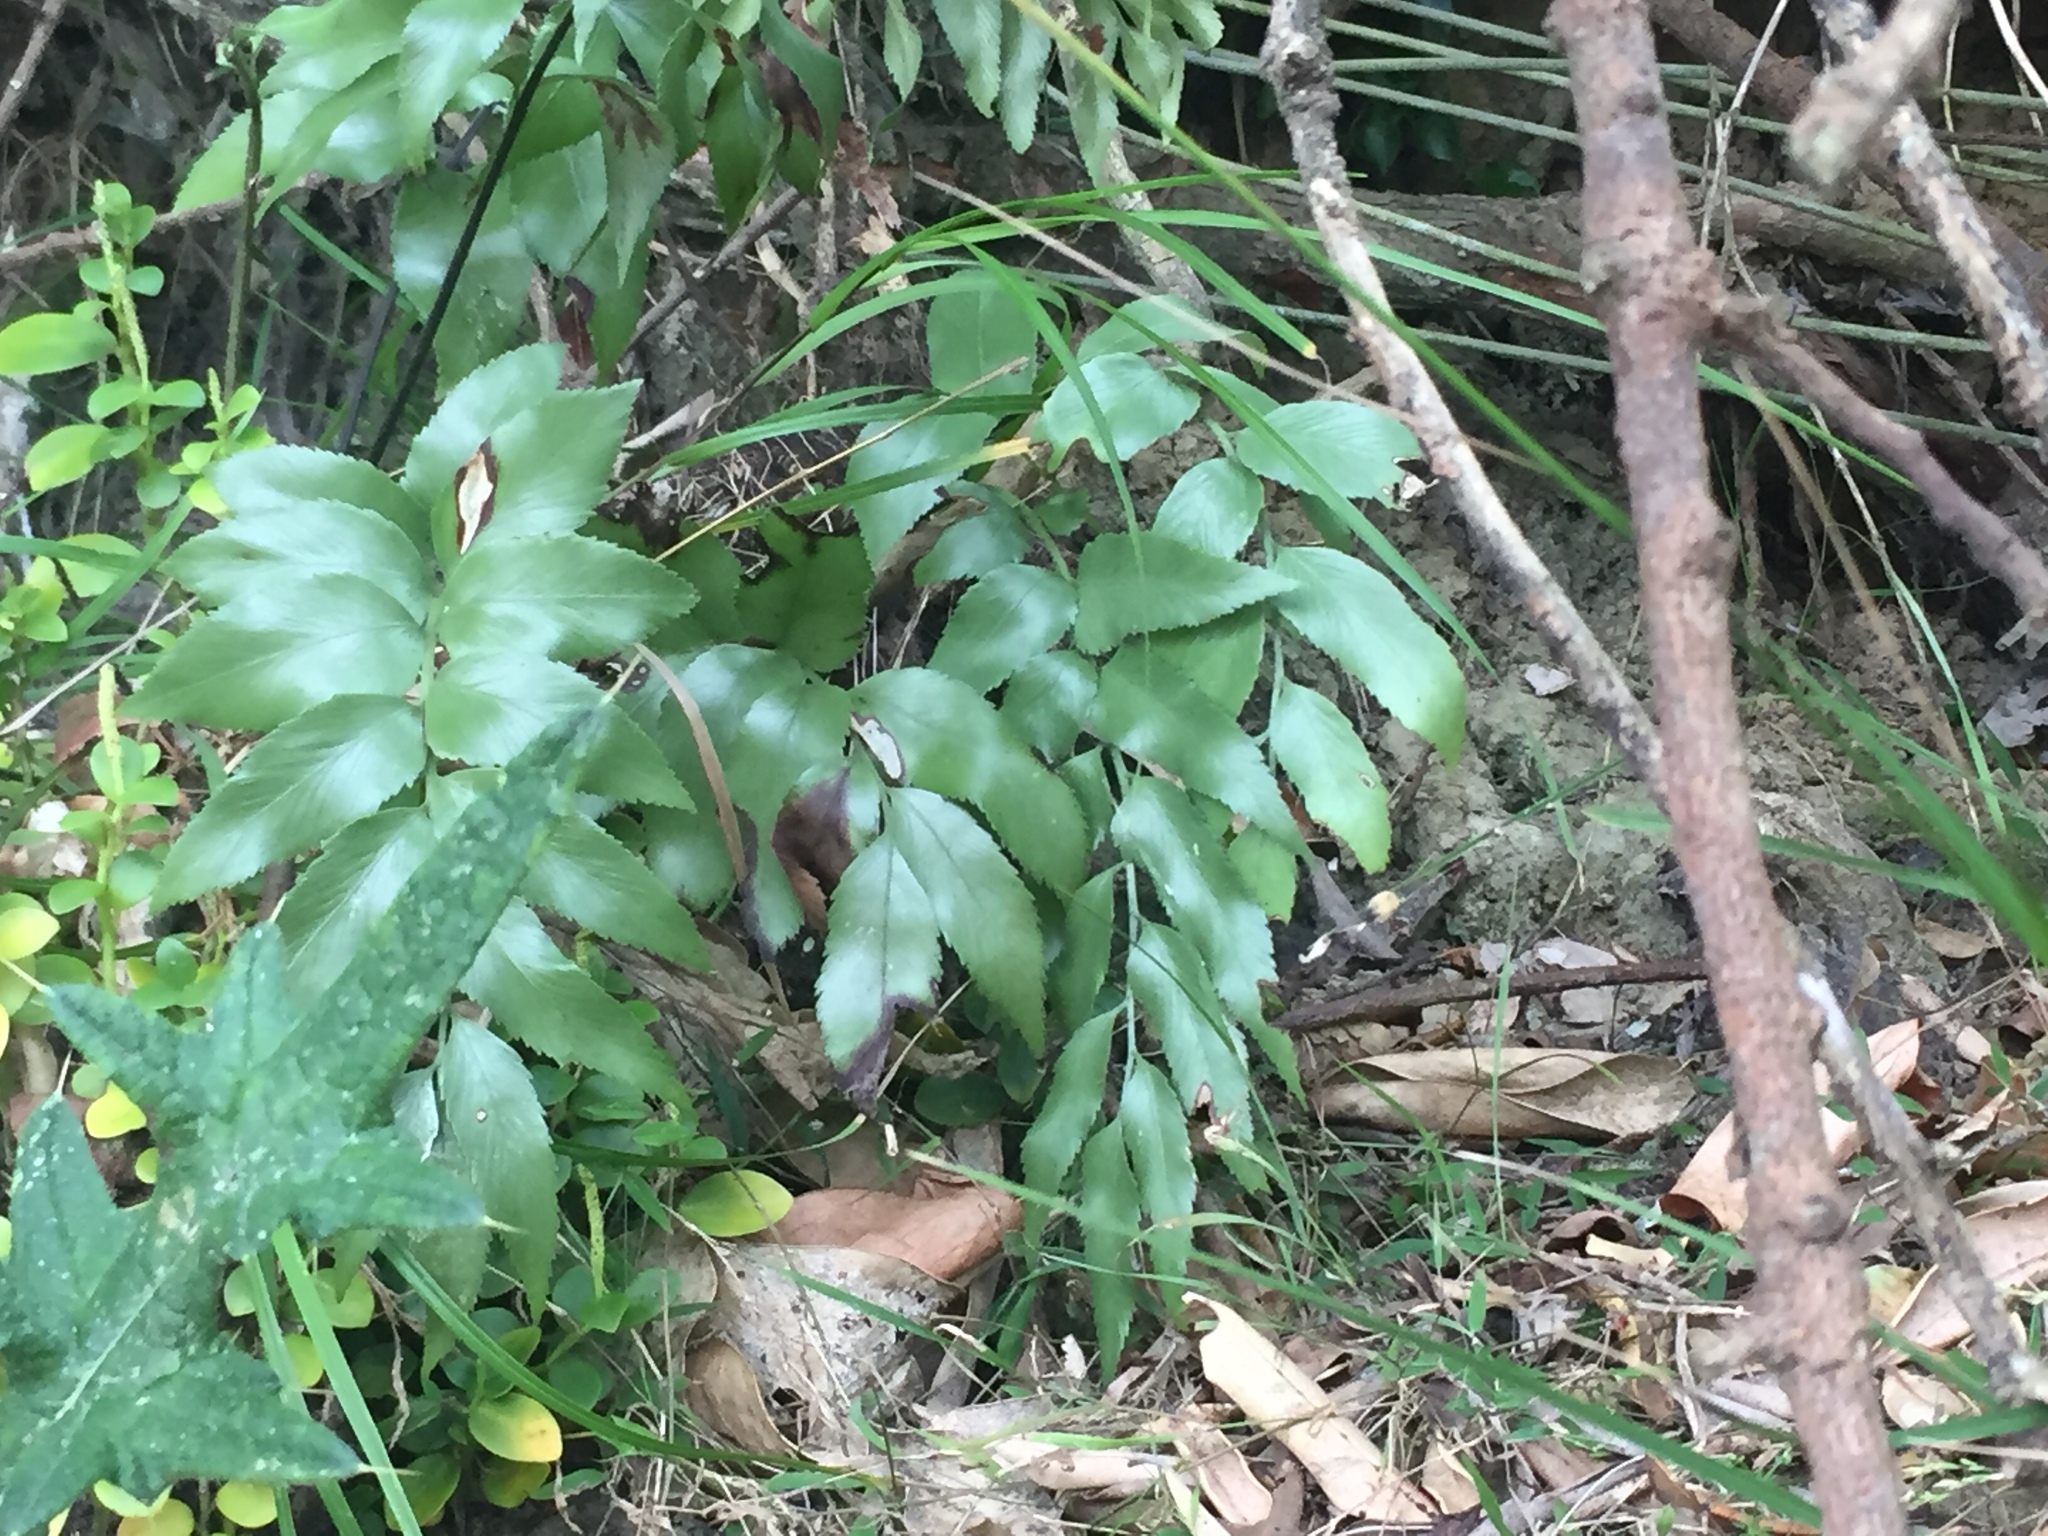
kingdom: Plantae
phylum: Tracheophyta
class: Polypodiopsida
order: Polypodiales
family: Aspleniaceae
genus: Asplenium
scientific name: Asplenium oblongifolium
